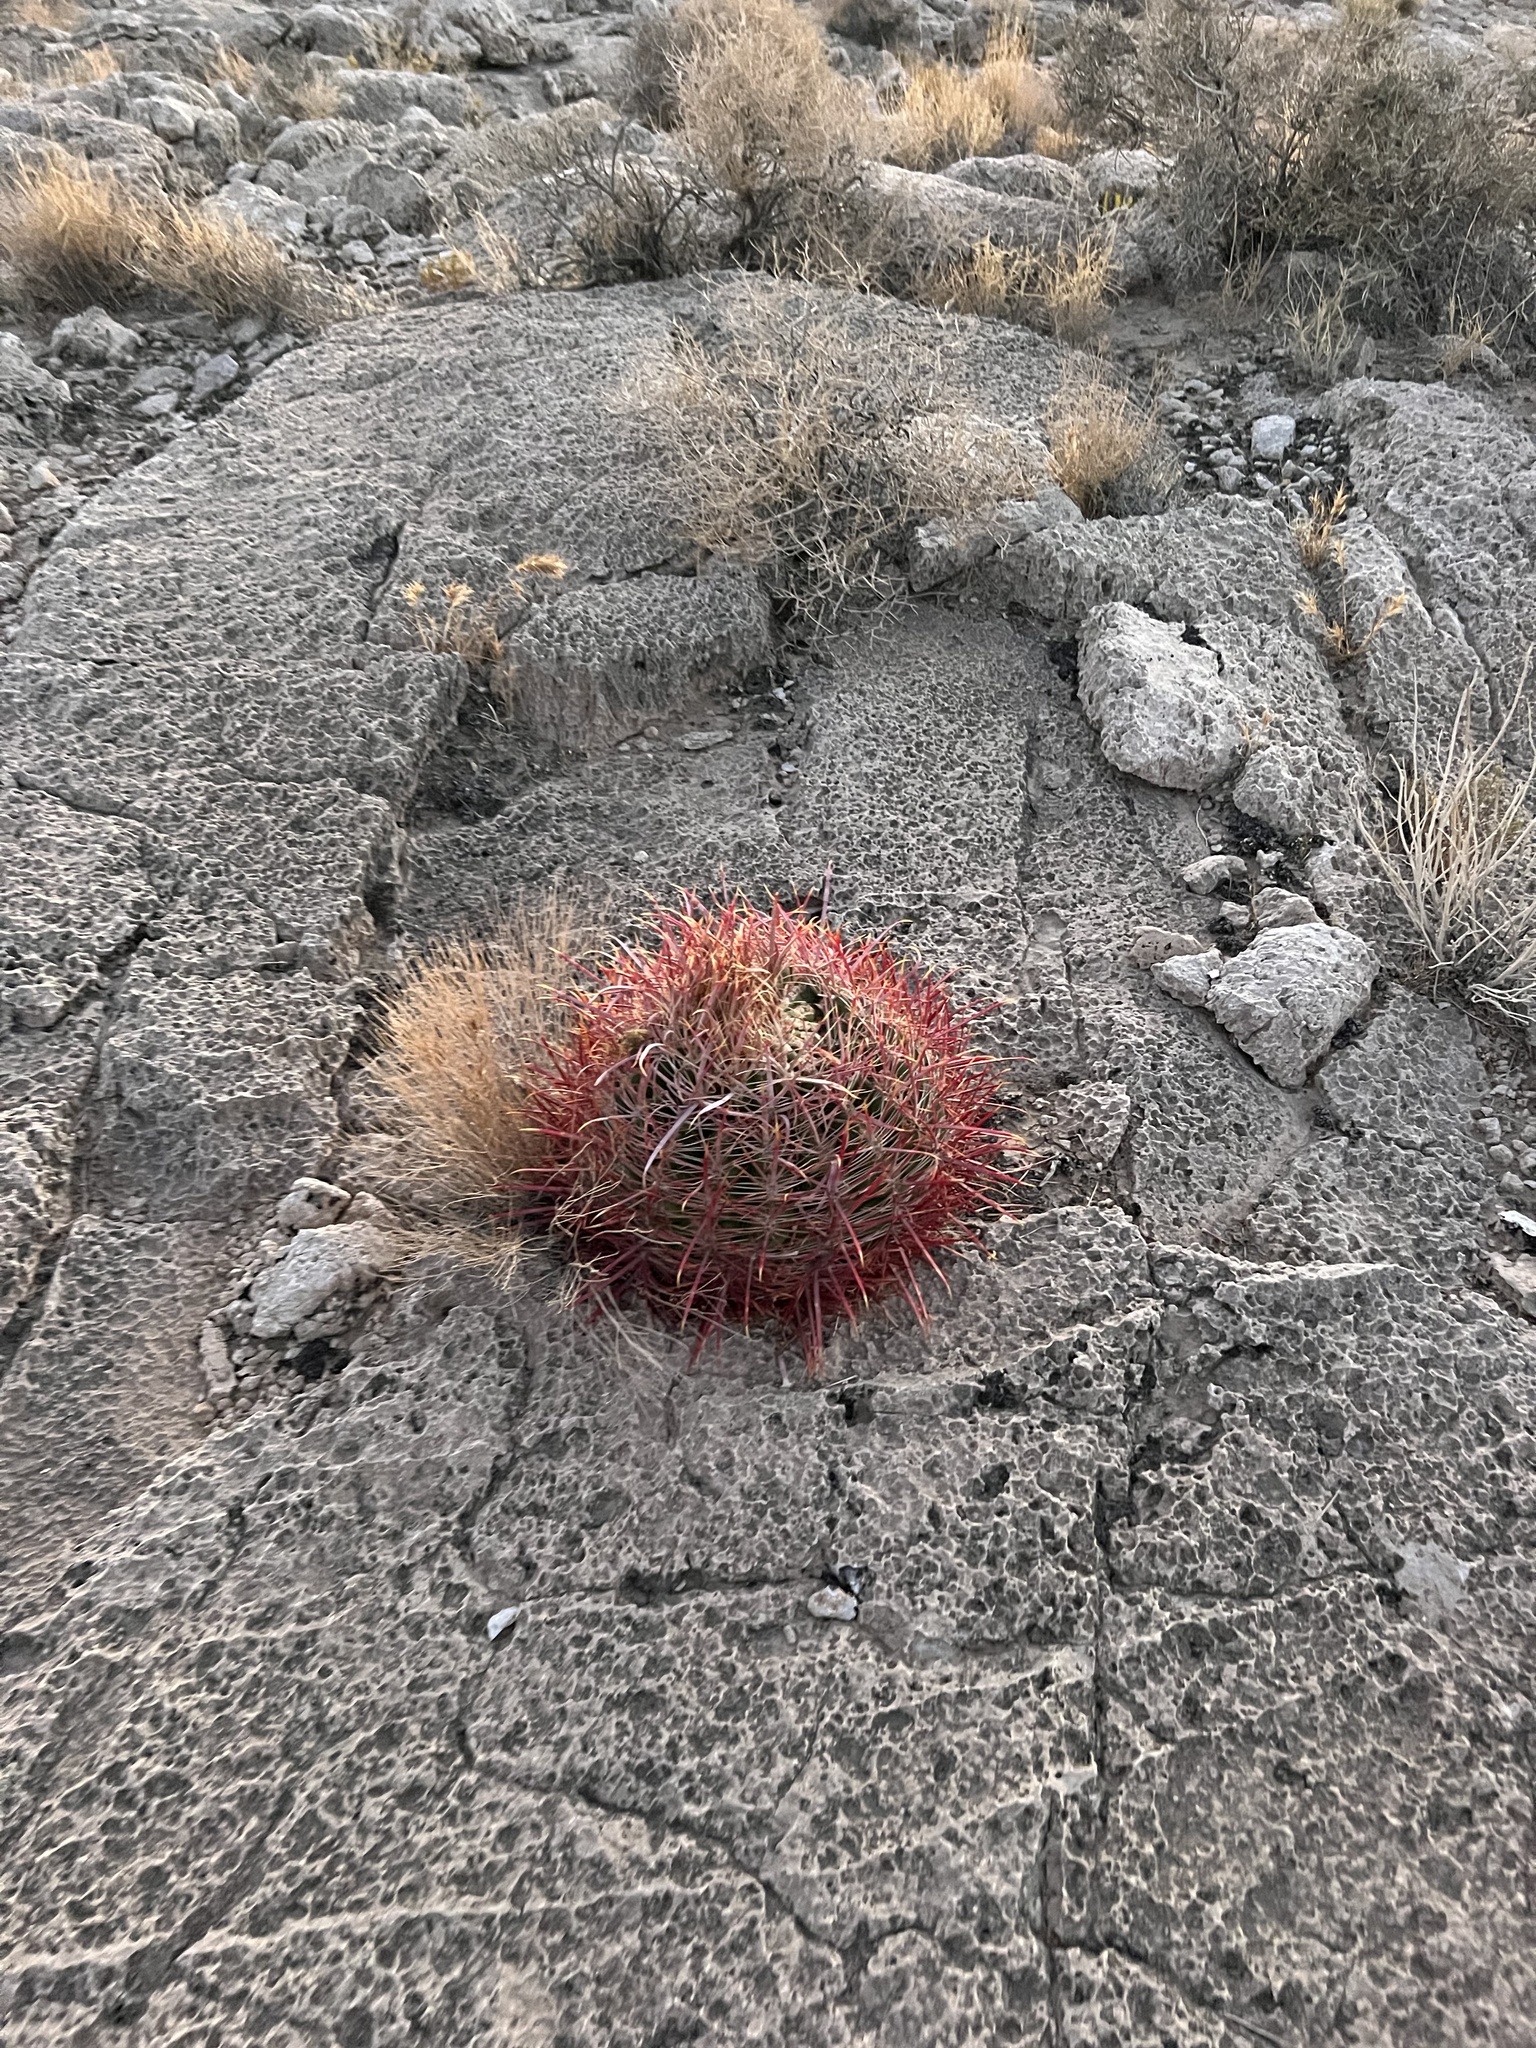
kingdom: Plantae
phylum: Tracheophyta
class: Magnoliopsida
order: Caryophyllales
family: Cactaceae
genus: Ferocactus
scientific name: Ferocactus cylindraceus
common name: California barrel cactus
